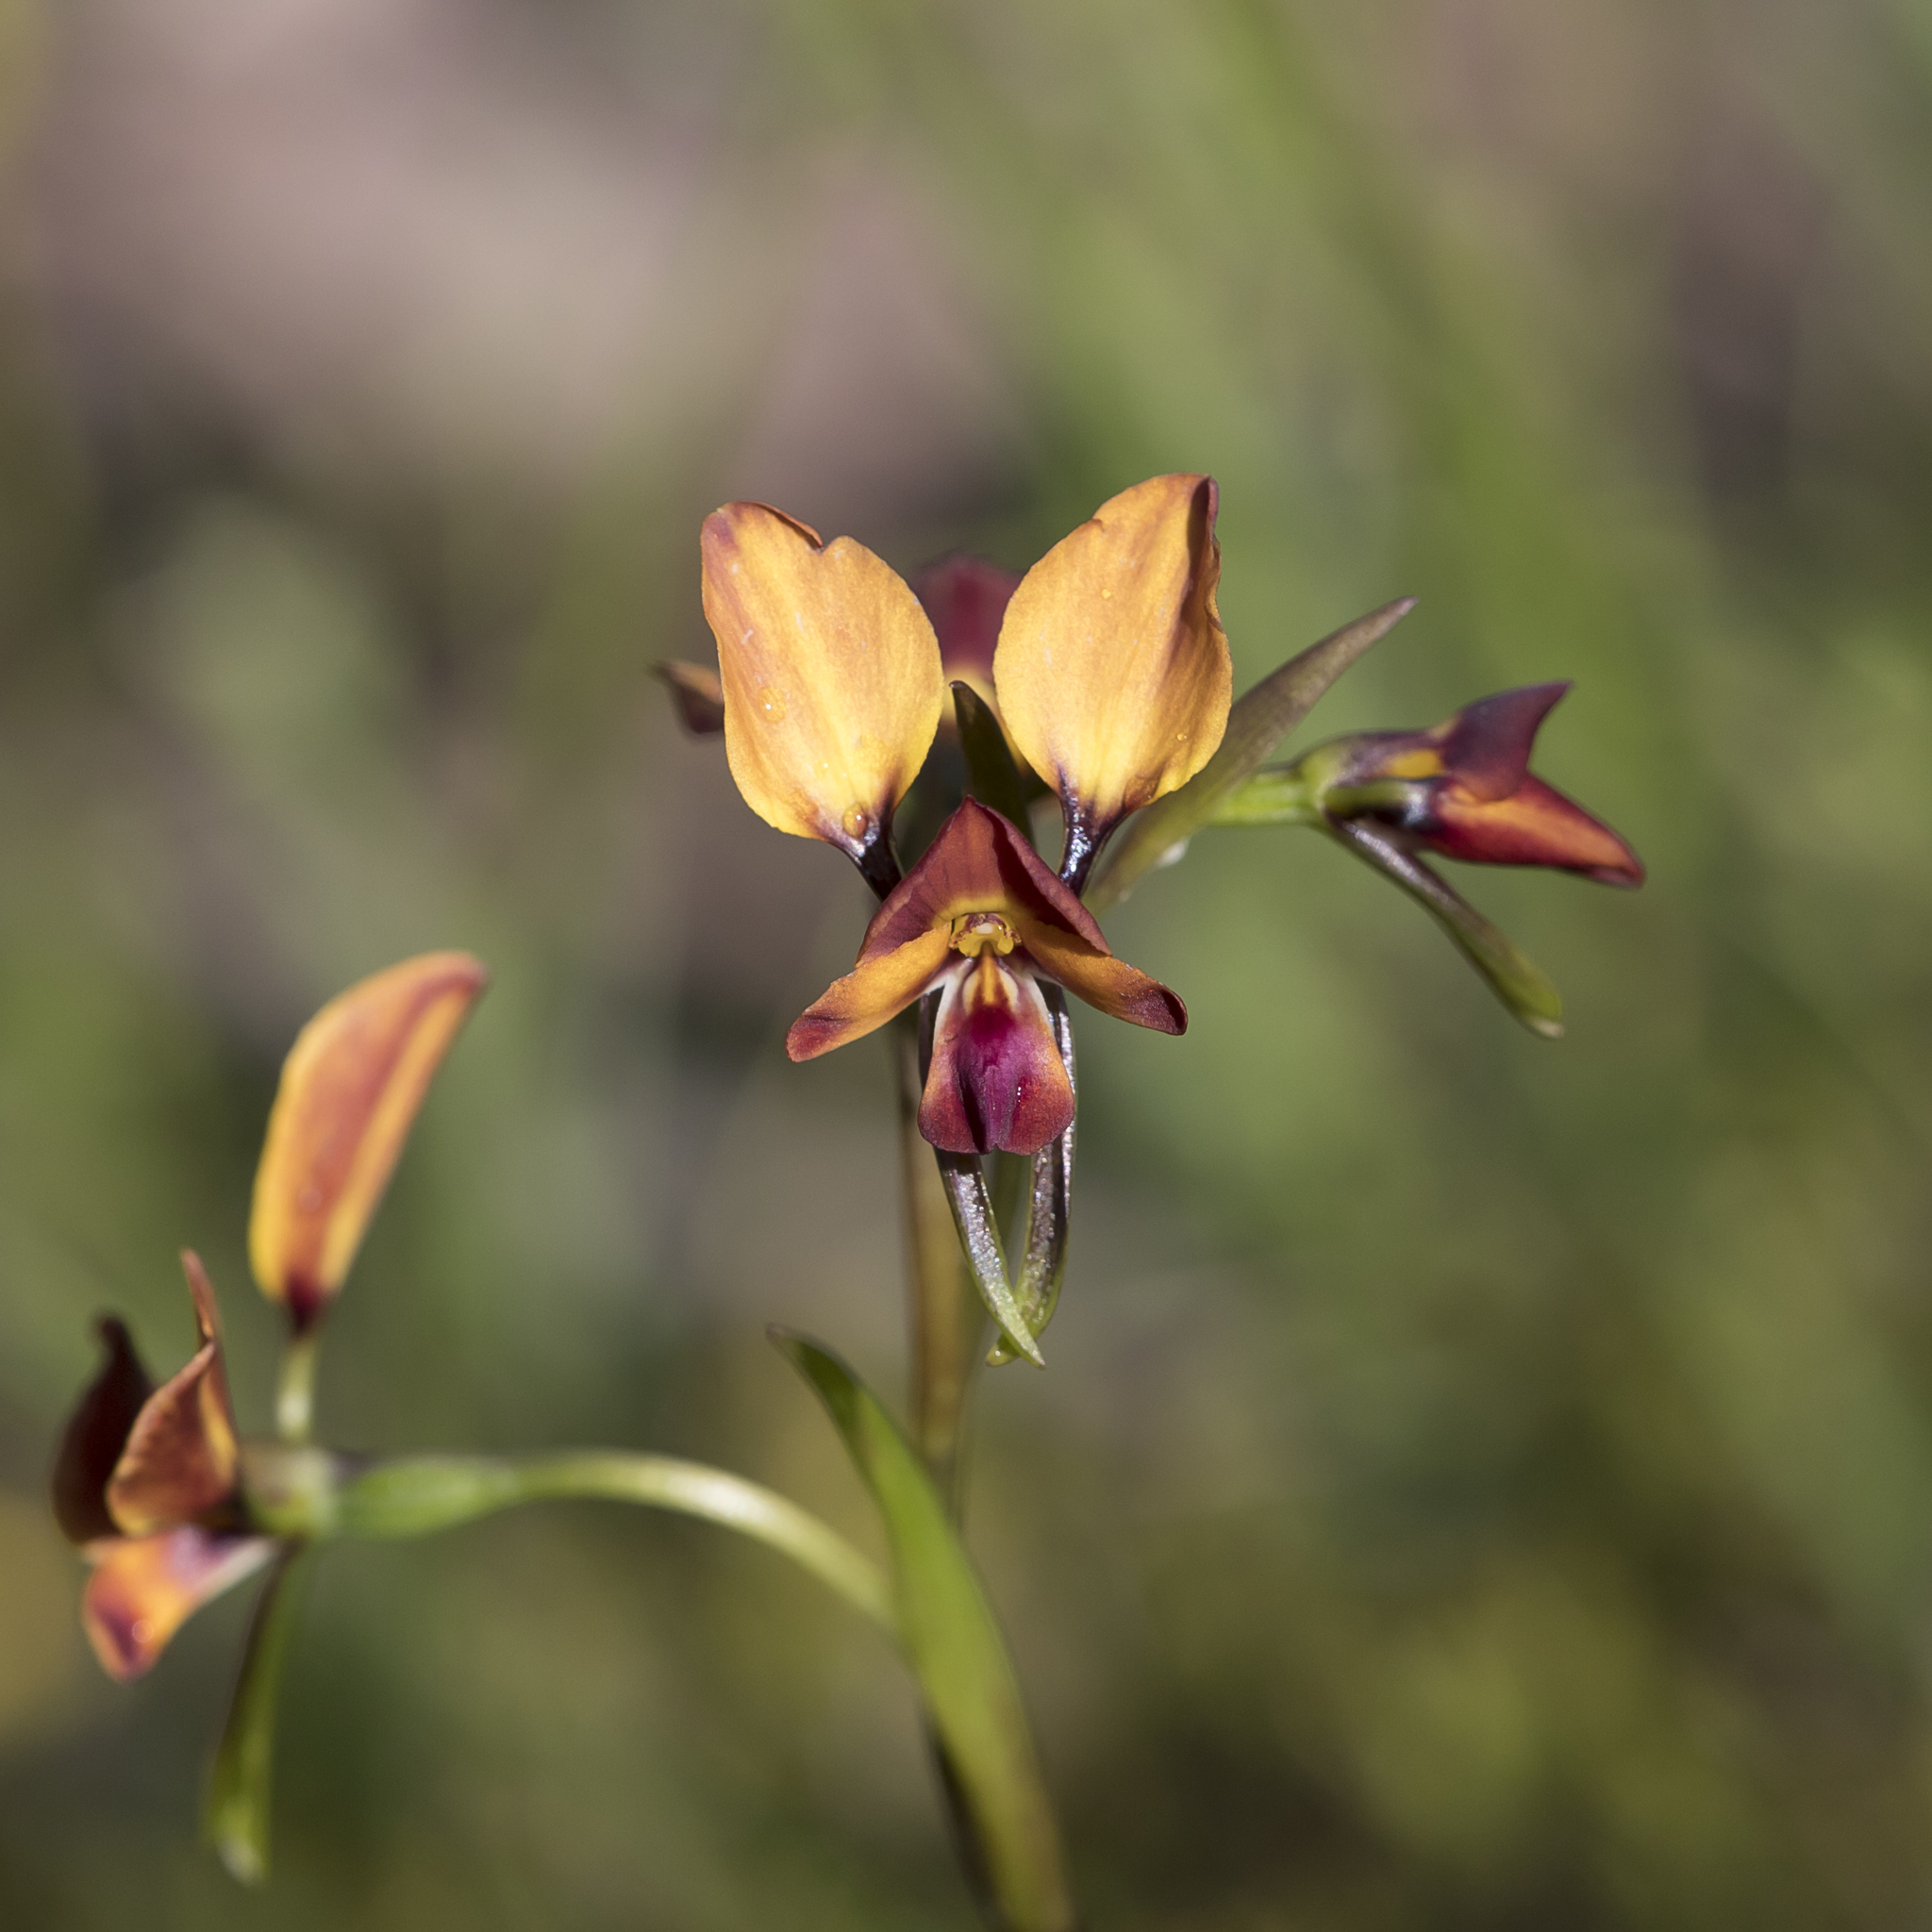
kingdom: Plantae
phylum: Tracheophyta
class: Liliopsida
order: Asparagales
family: Orchidaceae
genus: Diuris
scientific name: Diuris orientis
